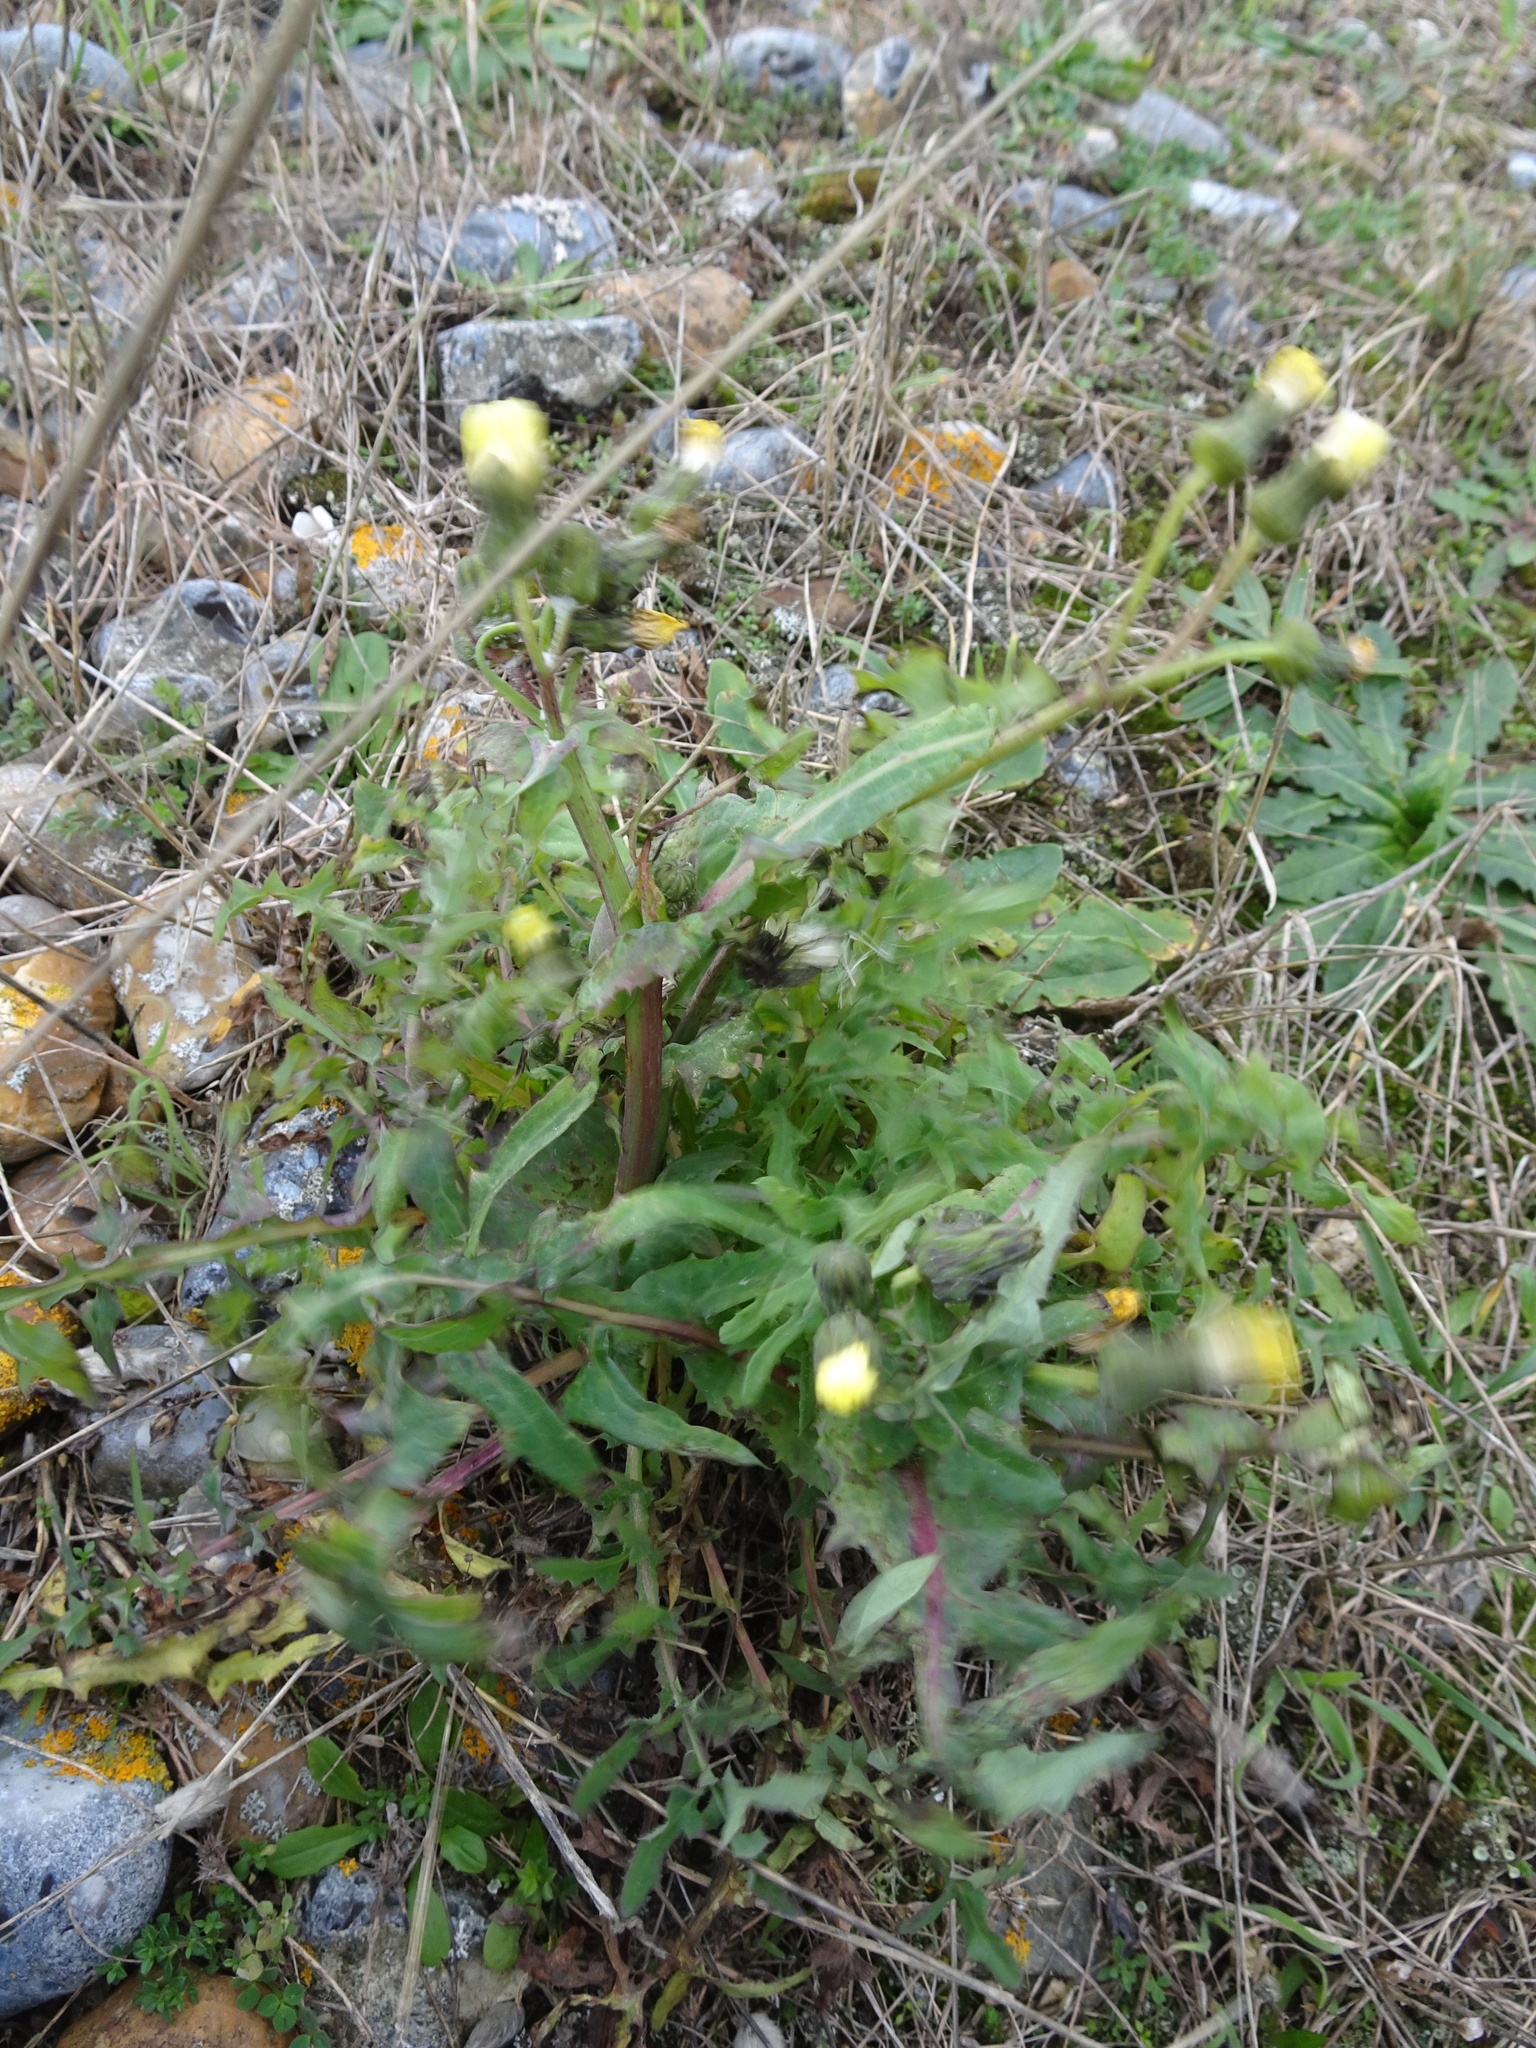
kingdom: Plantae
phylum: Tracheophyta
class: Magnoliopsida
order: Asterales
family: Asteraceae
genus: Sonchus
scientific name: Sonchus oleraceus
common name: Common sowthistle
